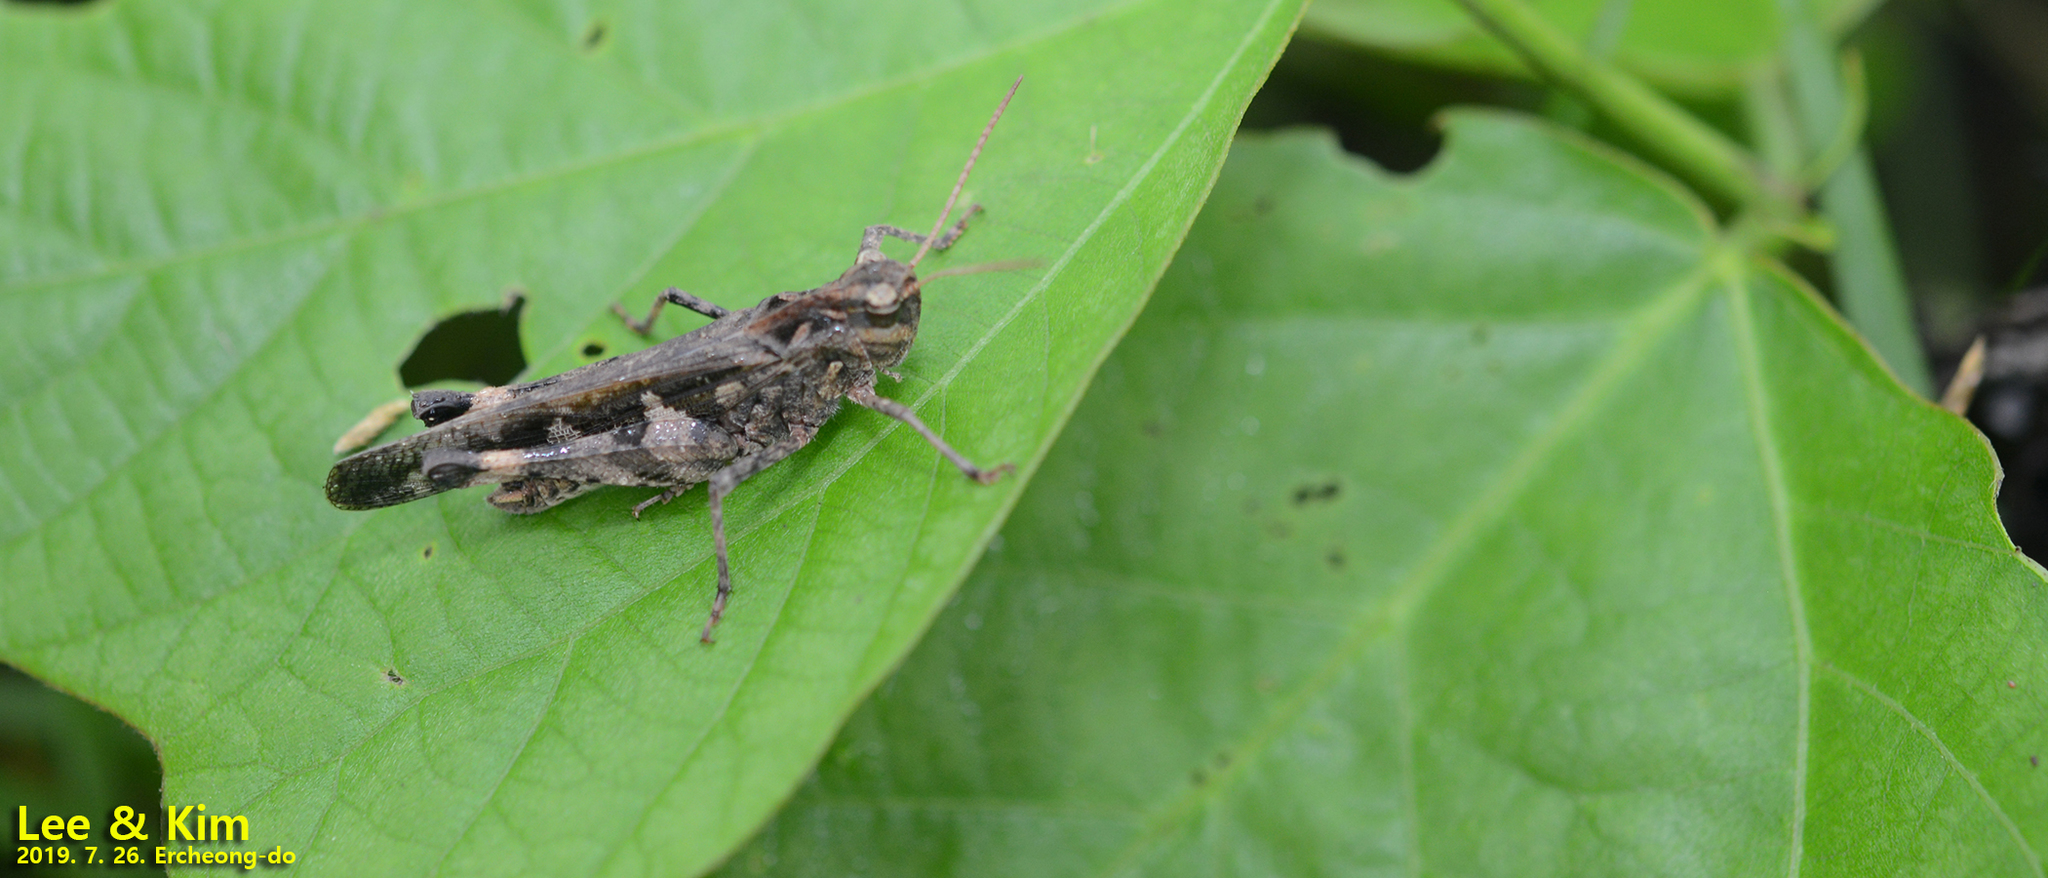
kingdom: Animalia
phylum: Arthropoda
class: Insecta
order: Orthoptera
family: Acrididae
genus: Oedaleus
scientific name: Oedaleus infernalis
